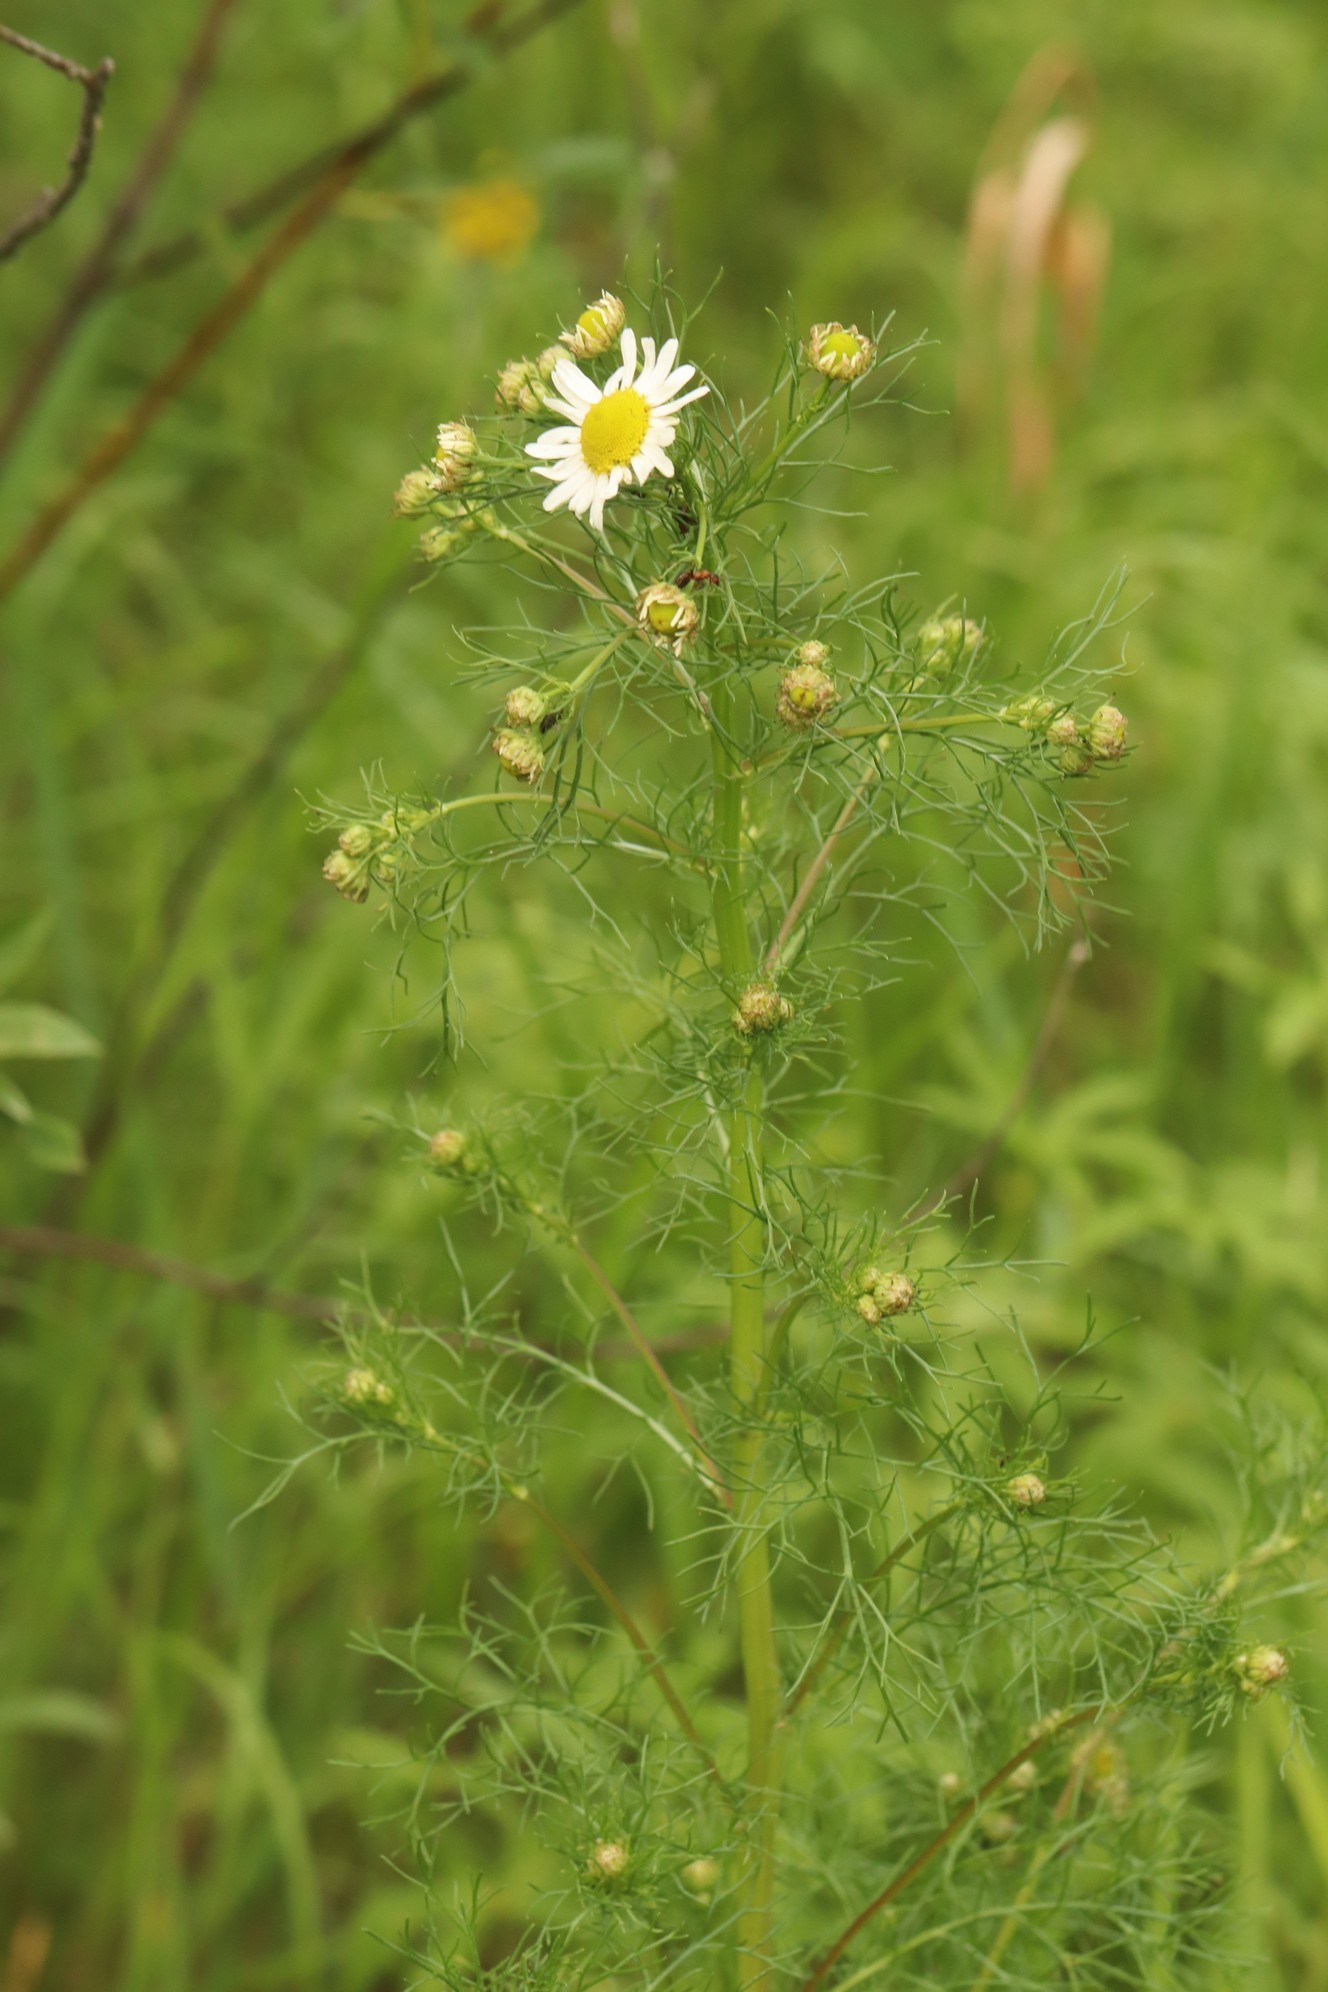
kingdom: Plantae
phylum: Tracheophyta
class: Magnoliopsida
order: Asterales
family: Asteraceae
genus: Tripleurospermum
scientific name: Tripleurospermum inodorum
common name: Scentless mayweed
